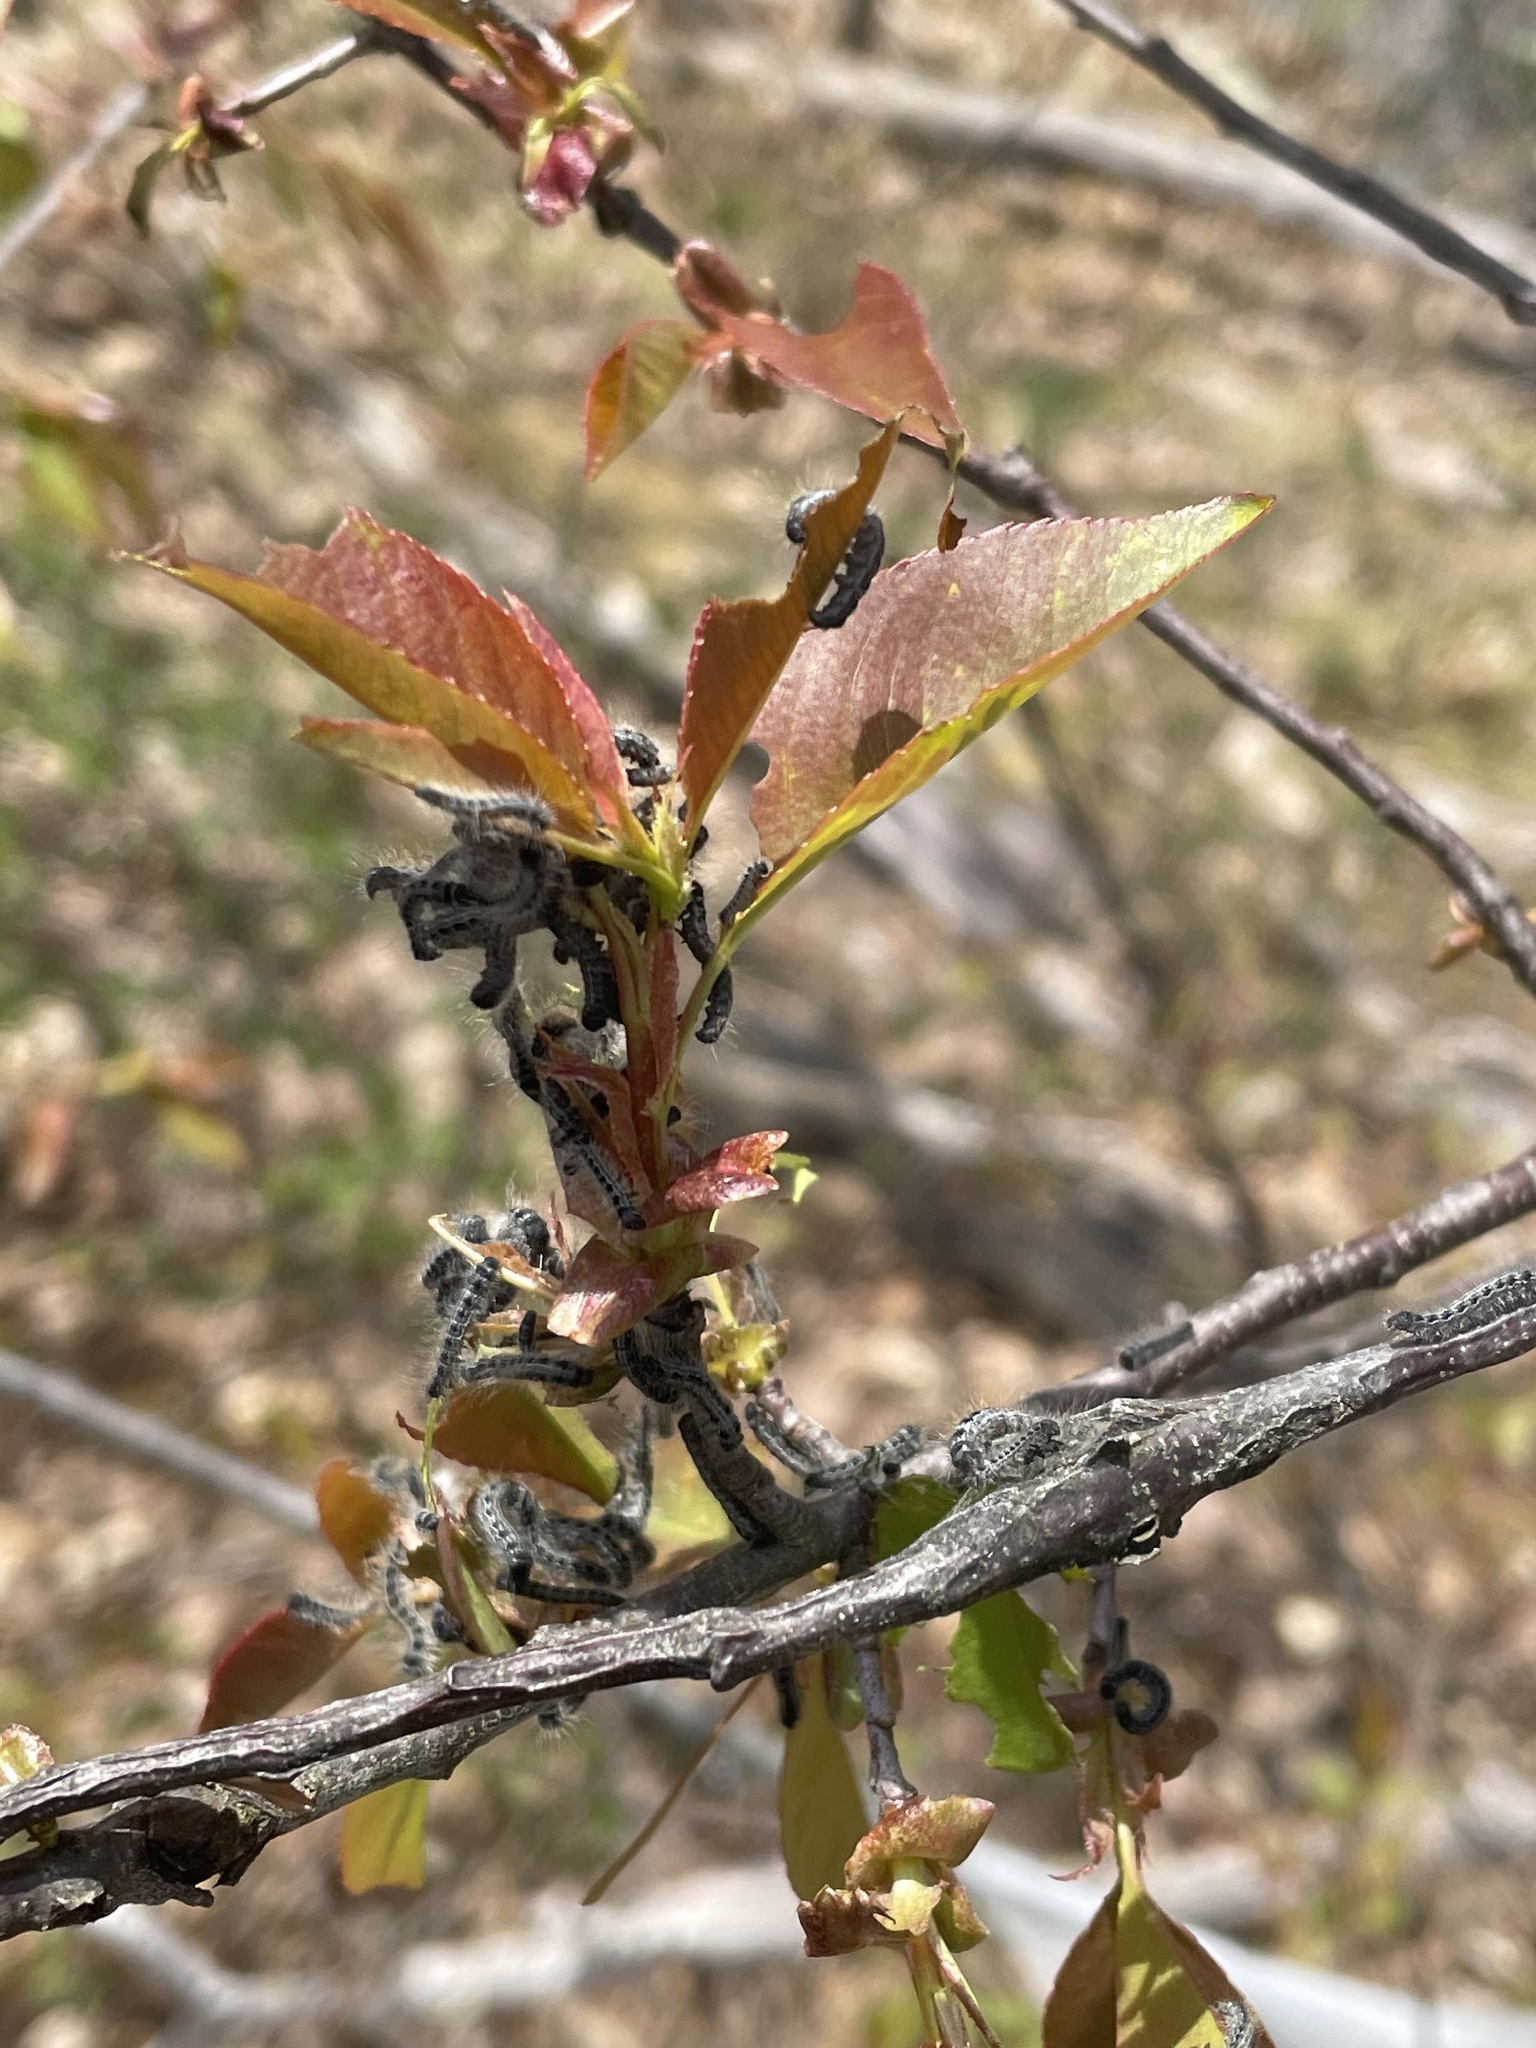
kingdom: Animalia
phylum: Arthropoda
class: Insecta
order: Lepidoptera
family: Lasiocampidae
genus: Malacosoma
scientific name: Malacosoma americana
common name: Eastern tent caterpillar moth
